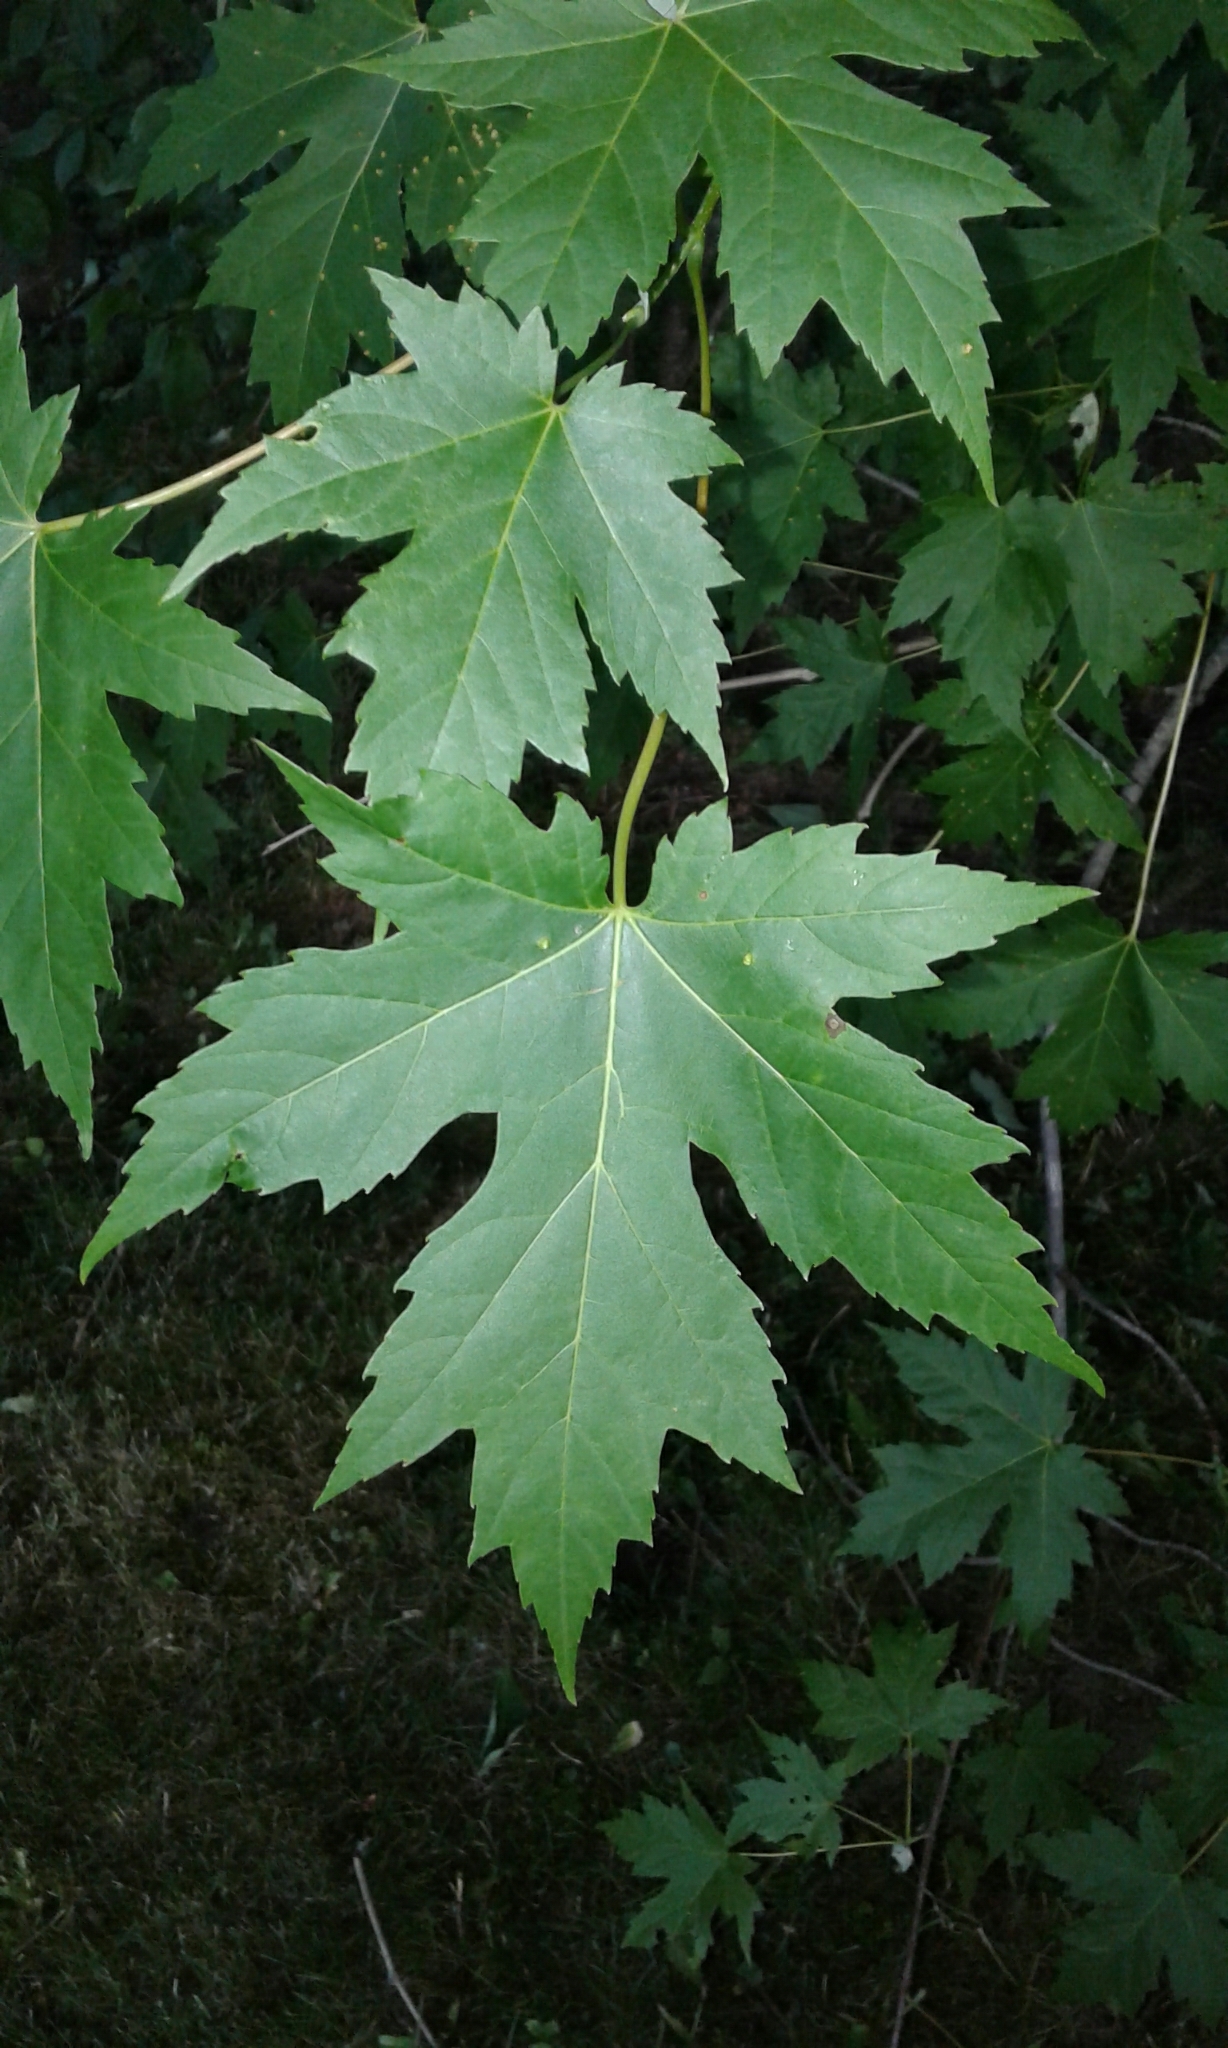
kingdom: Plantae
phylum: Tracheophyta
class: Magnoliopsida
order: Sapindales
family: Sapindaceae
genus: Acer
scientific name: Acer saccharinum
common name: Silver maple
